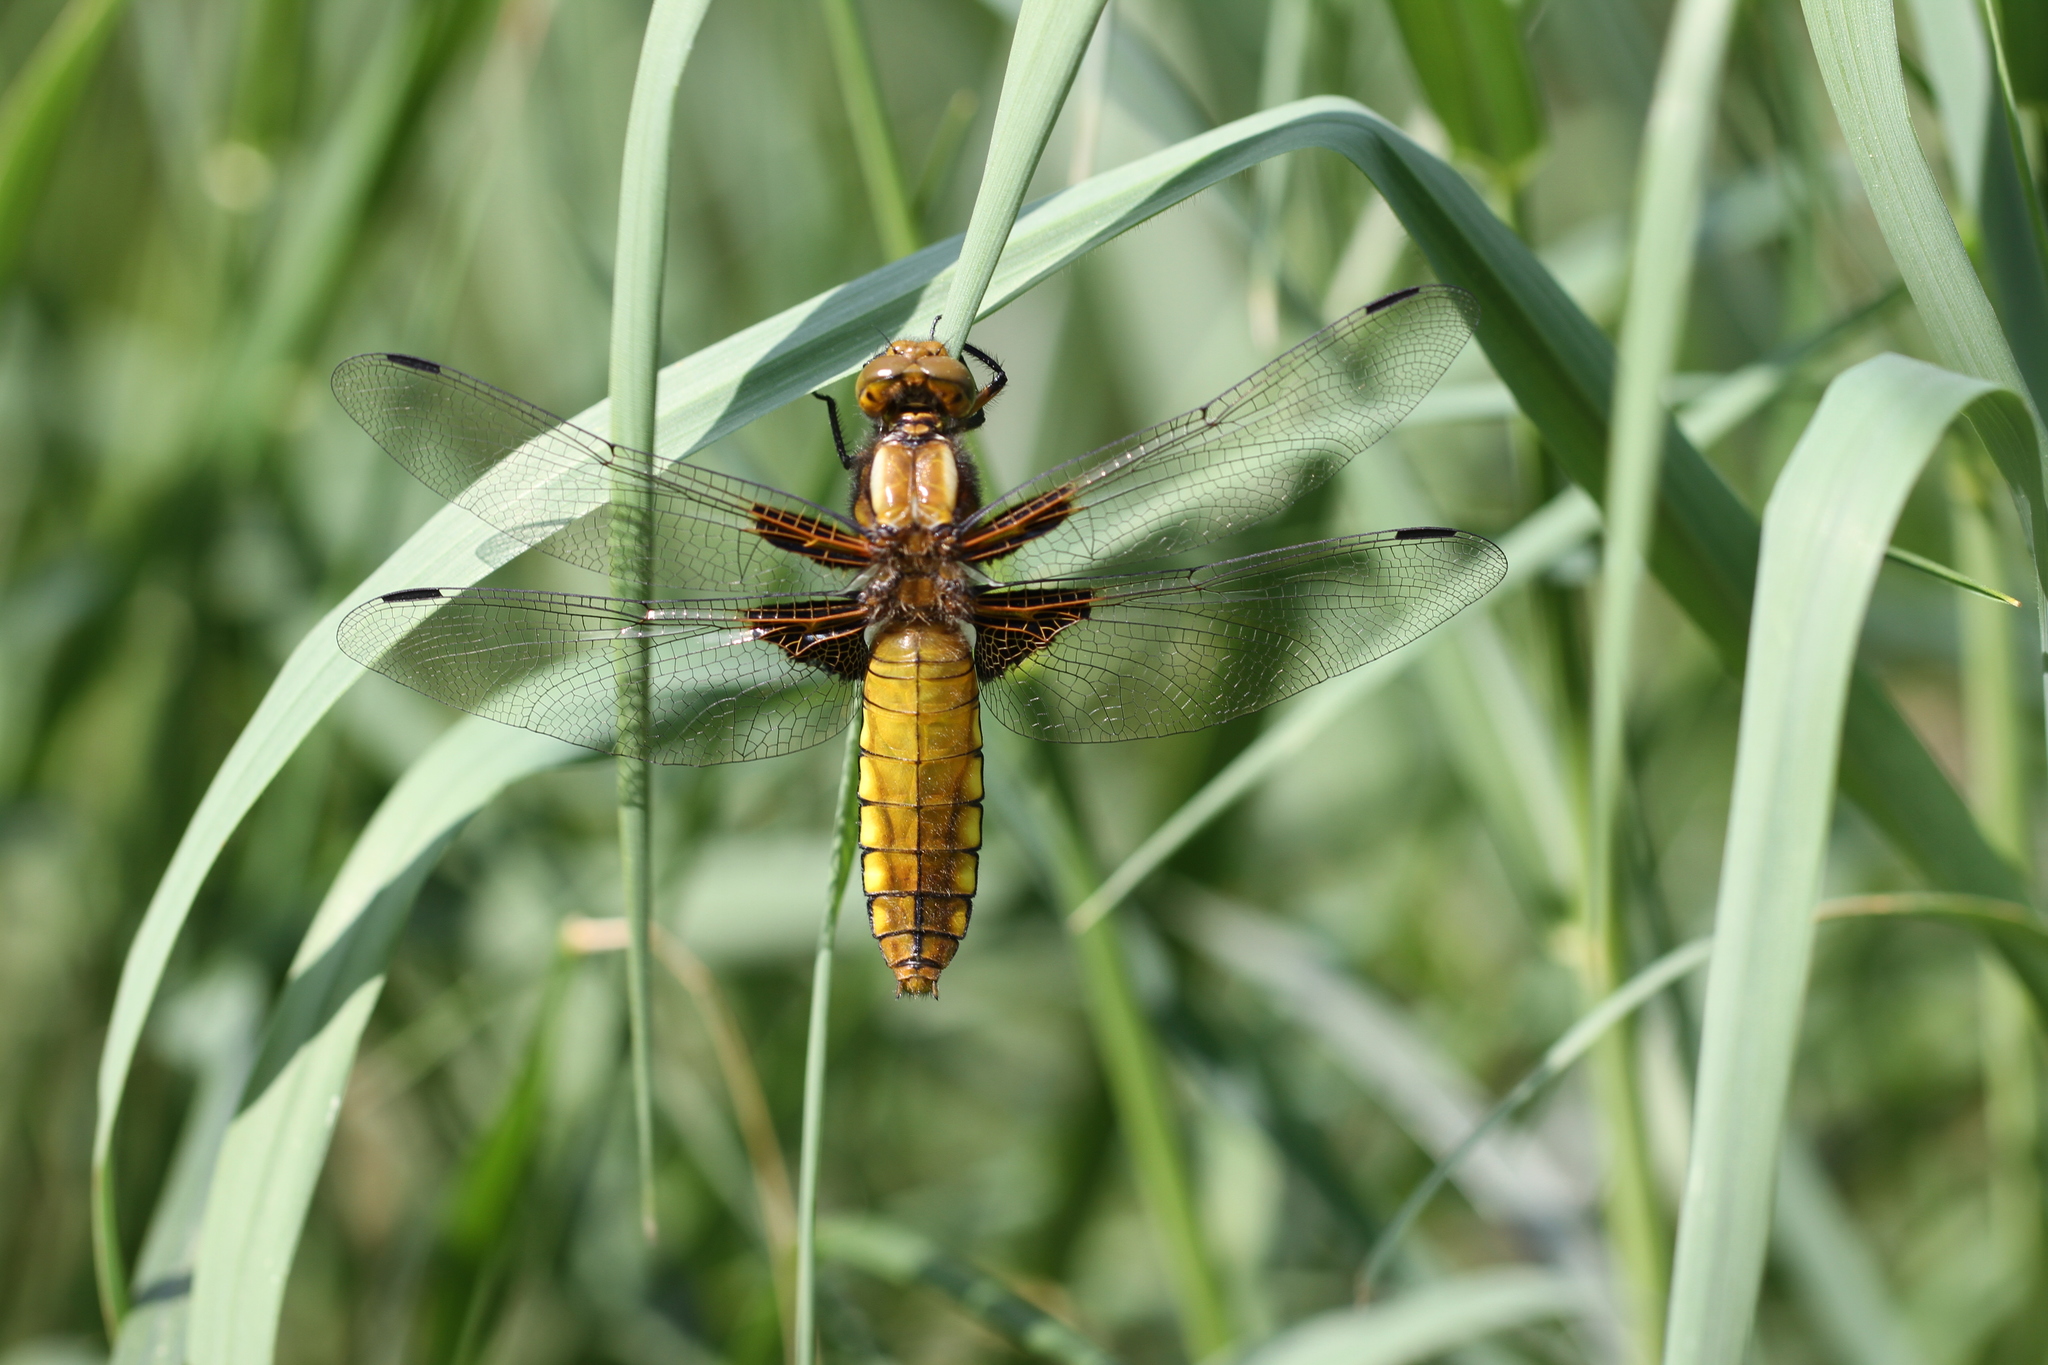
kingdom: Animalia
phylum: Arthropoda
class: Insecta
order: Odonata
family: Libellulidae
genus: Libellula
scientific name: Libellula depressa
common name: Broad-bodied chaser
